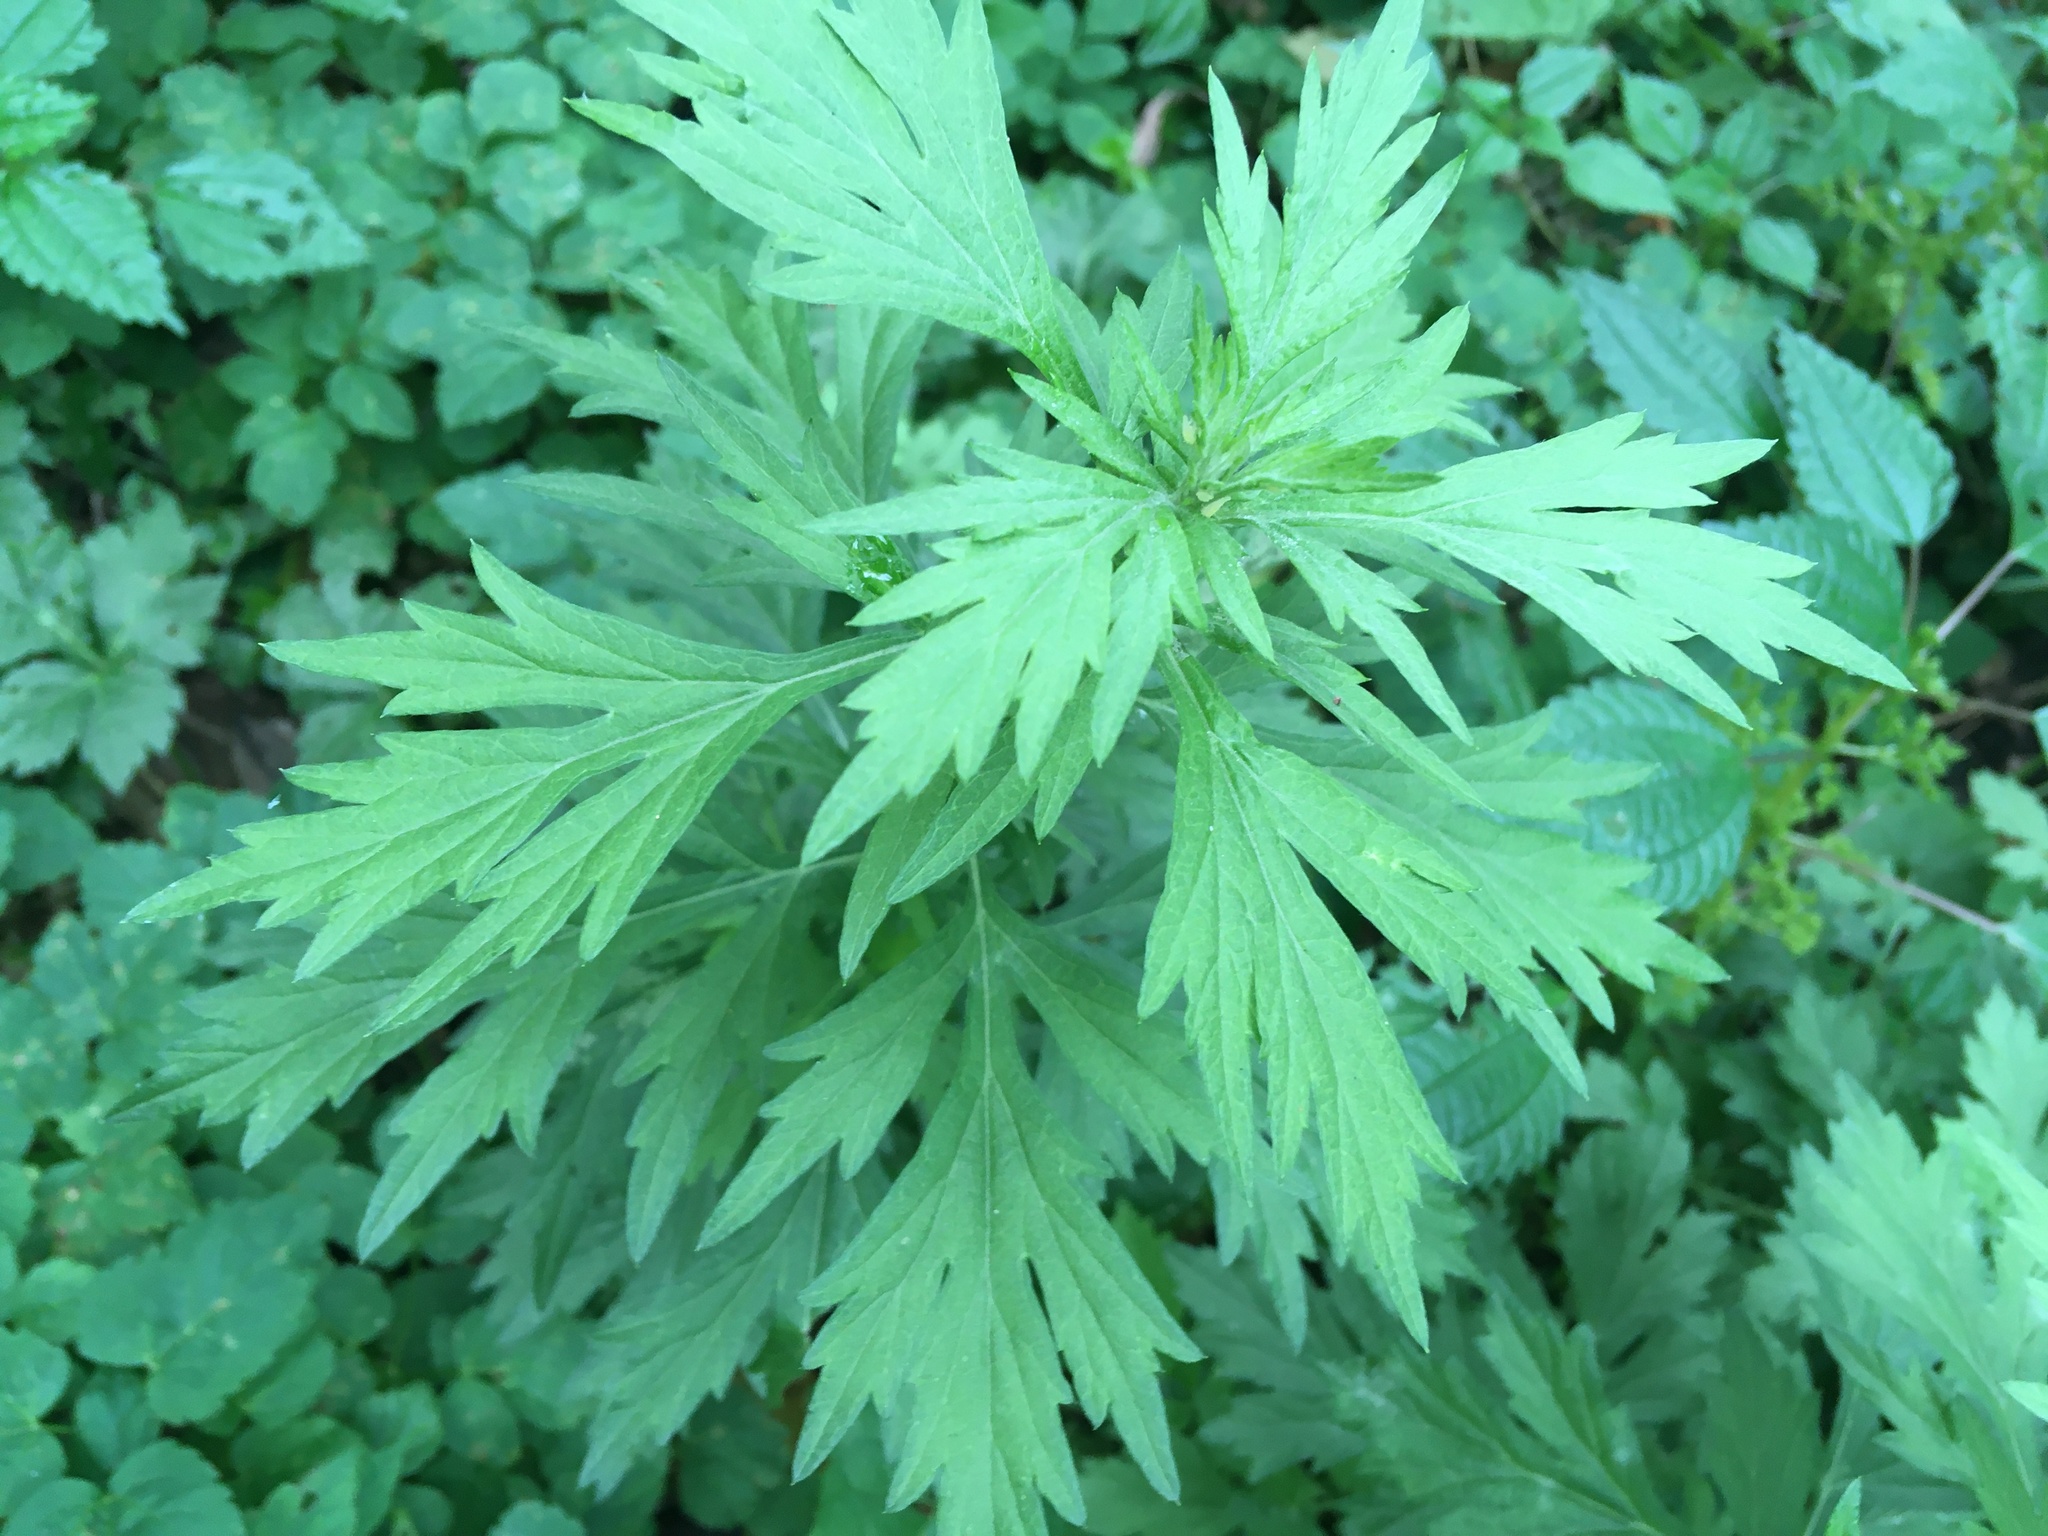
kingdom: Plantae
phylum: Tracheophyta
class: Magnoliopsida
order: Asterales
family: Asteraceae
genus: Artemisia
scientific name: Artemisia vulgaris
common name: Mugwort
